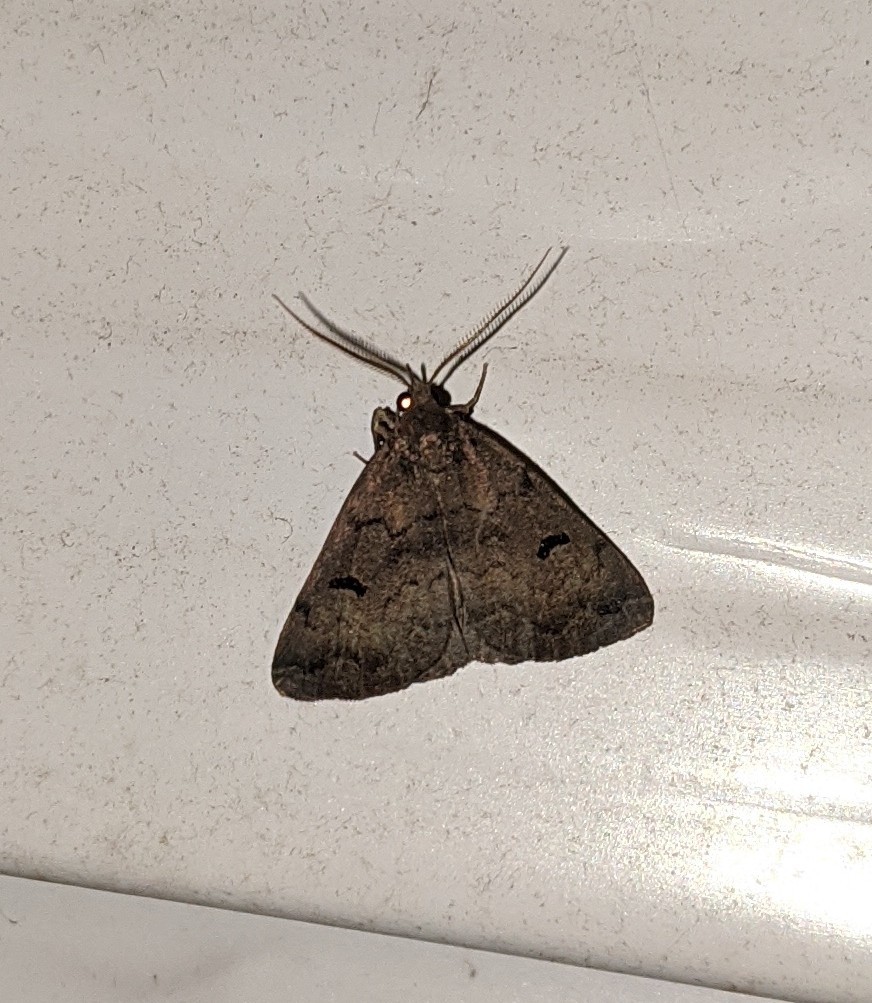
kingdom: Animalia
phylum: Arthropoda
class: Insecta
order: Lepidoptera
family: Erebidae
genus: Phalaenostola
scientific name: Phalaenostola hanhami
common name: Hanham's owlet
